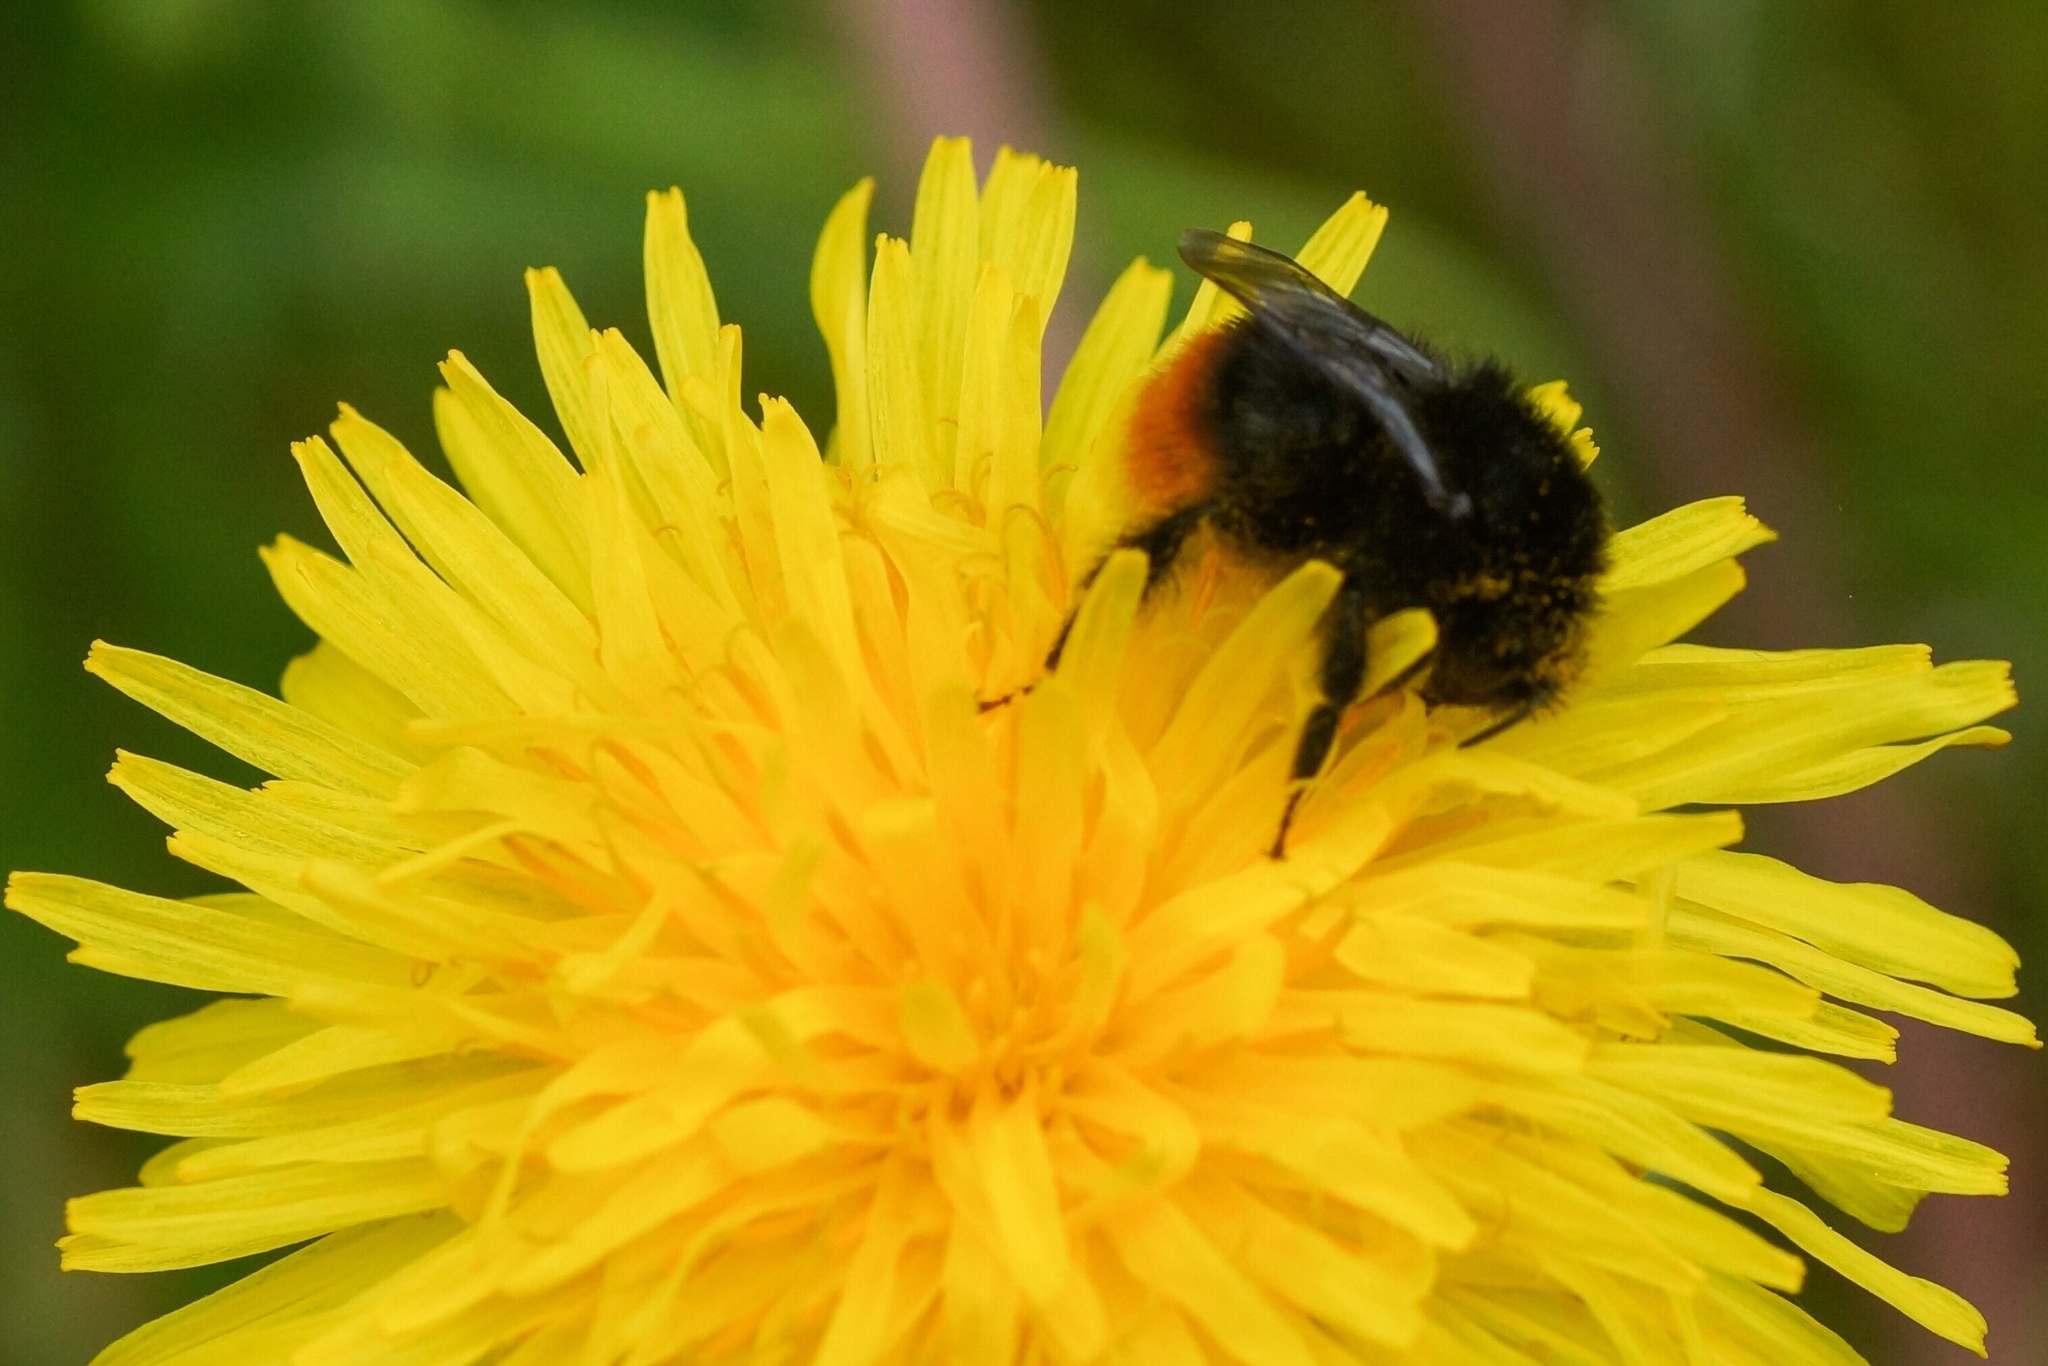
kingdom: Animalia
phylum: Arthropoda
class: Insecta
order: Hymenoptera
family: Apidae
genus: Bombus
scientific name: Bombus lapidarius
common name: Large red-tailed humble-bee
